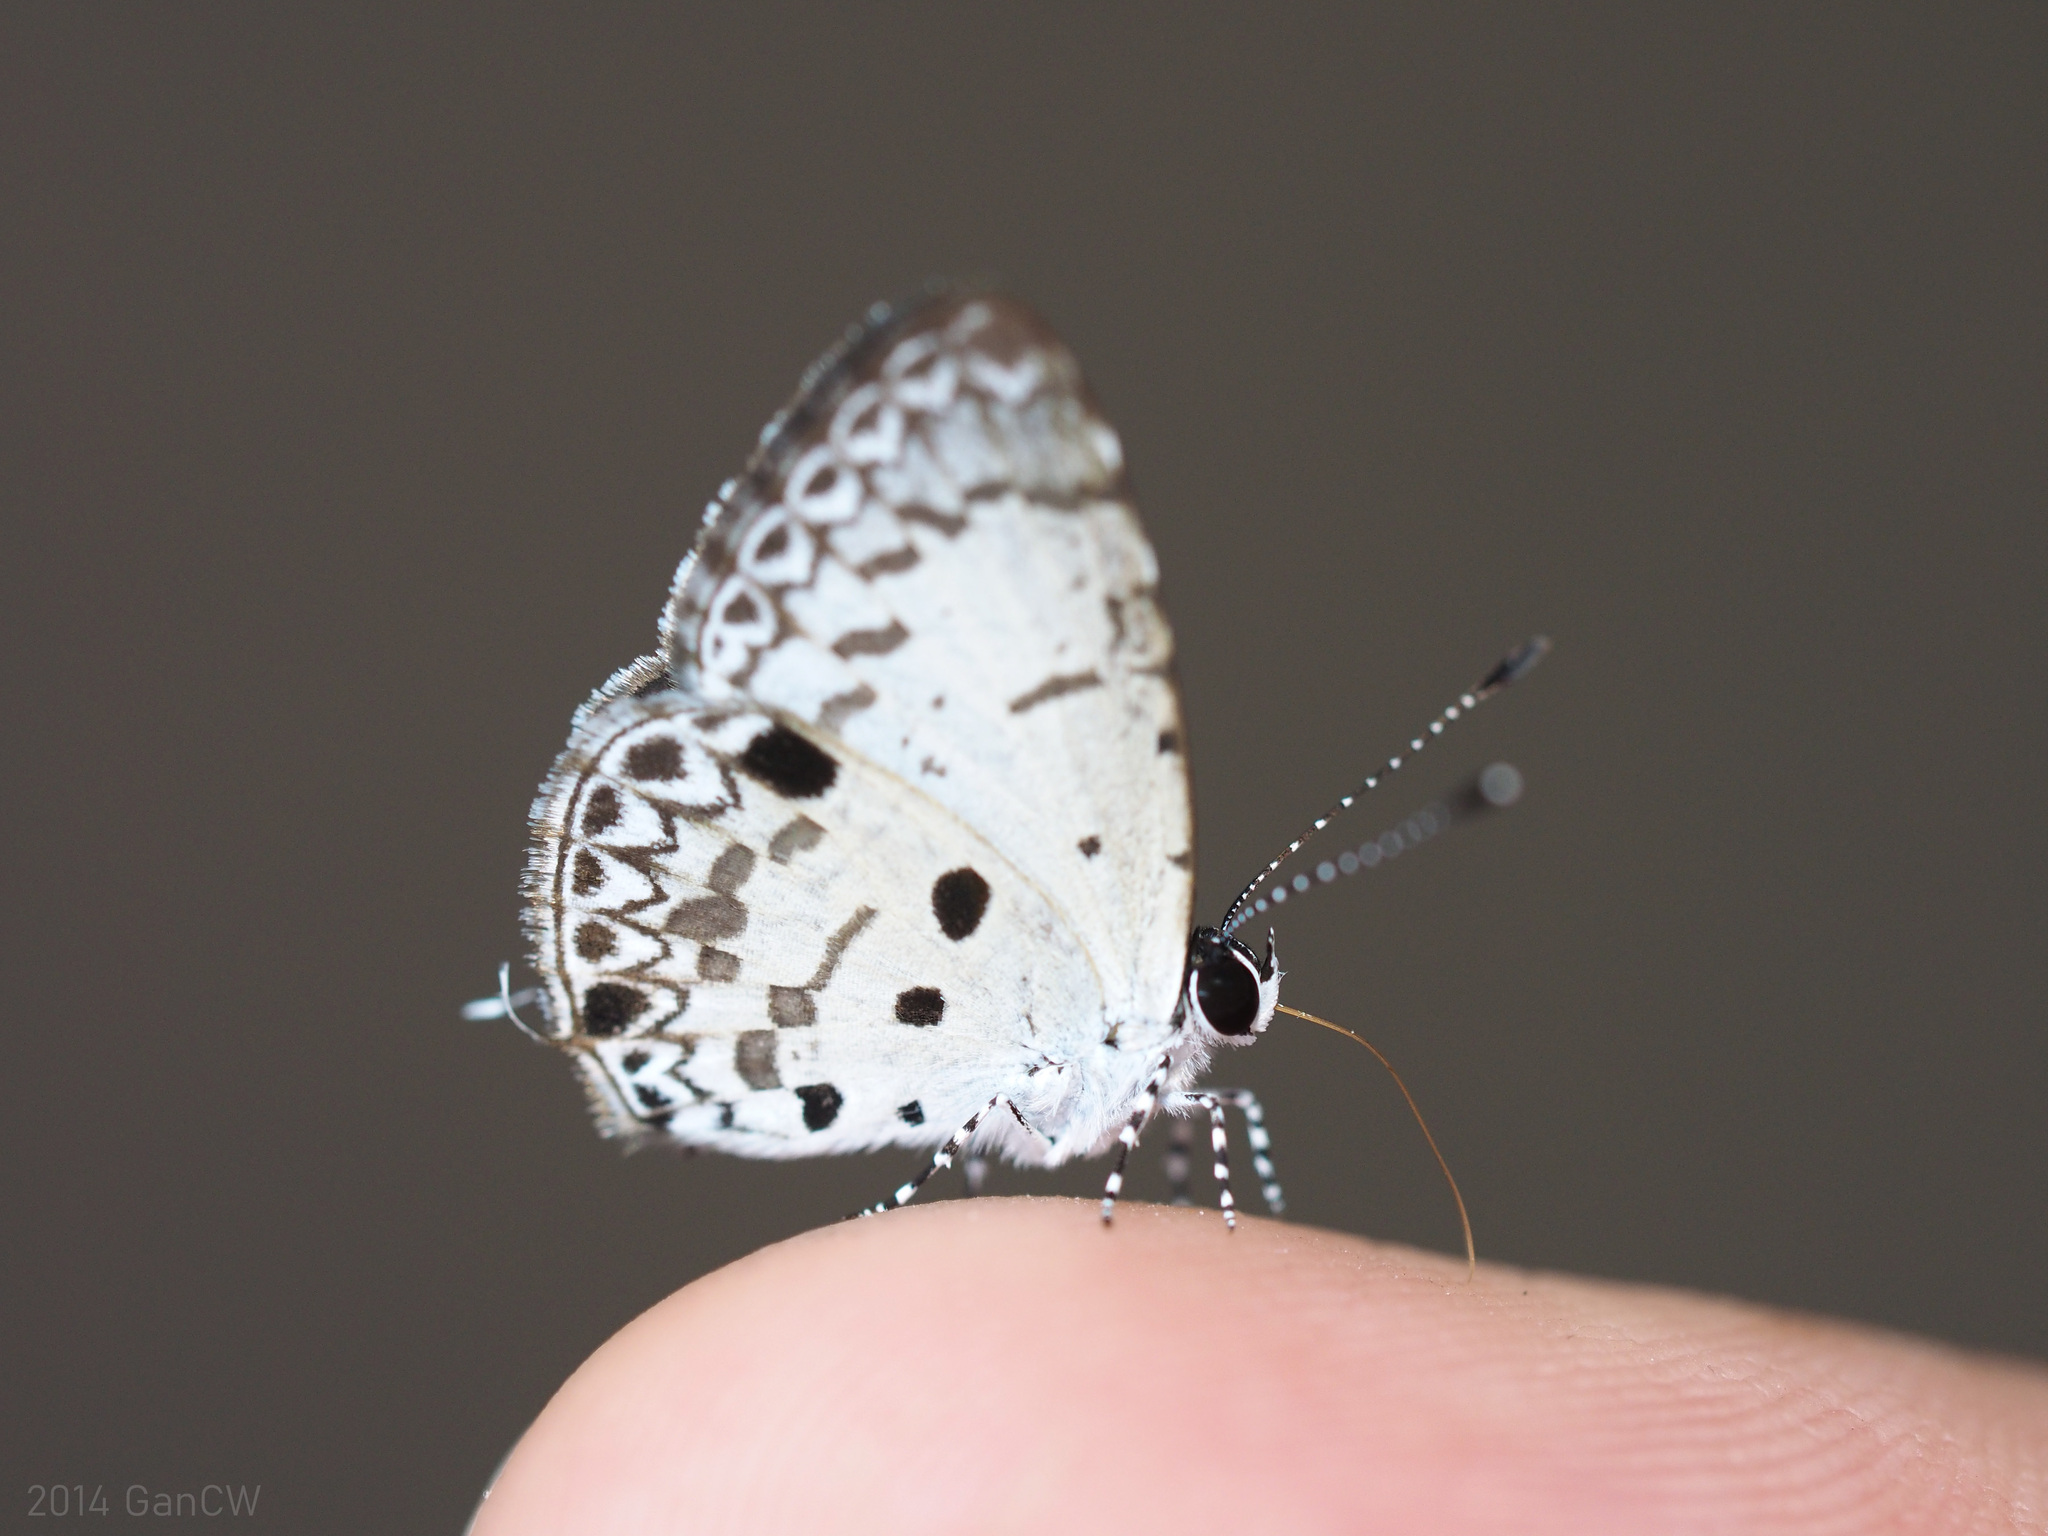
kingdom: Animalia
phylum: Arthropoda
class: Insecta
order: Lepidoptera
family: Lycaenidae
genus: Megisba
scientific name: Megisba malaya
